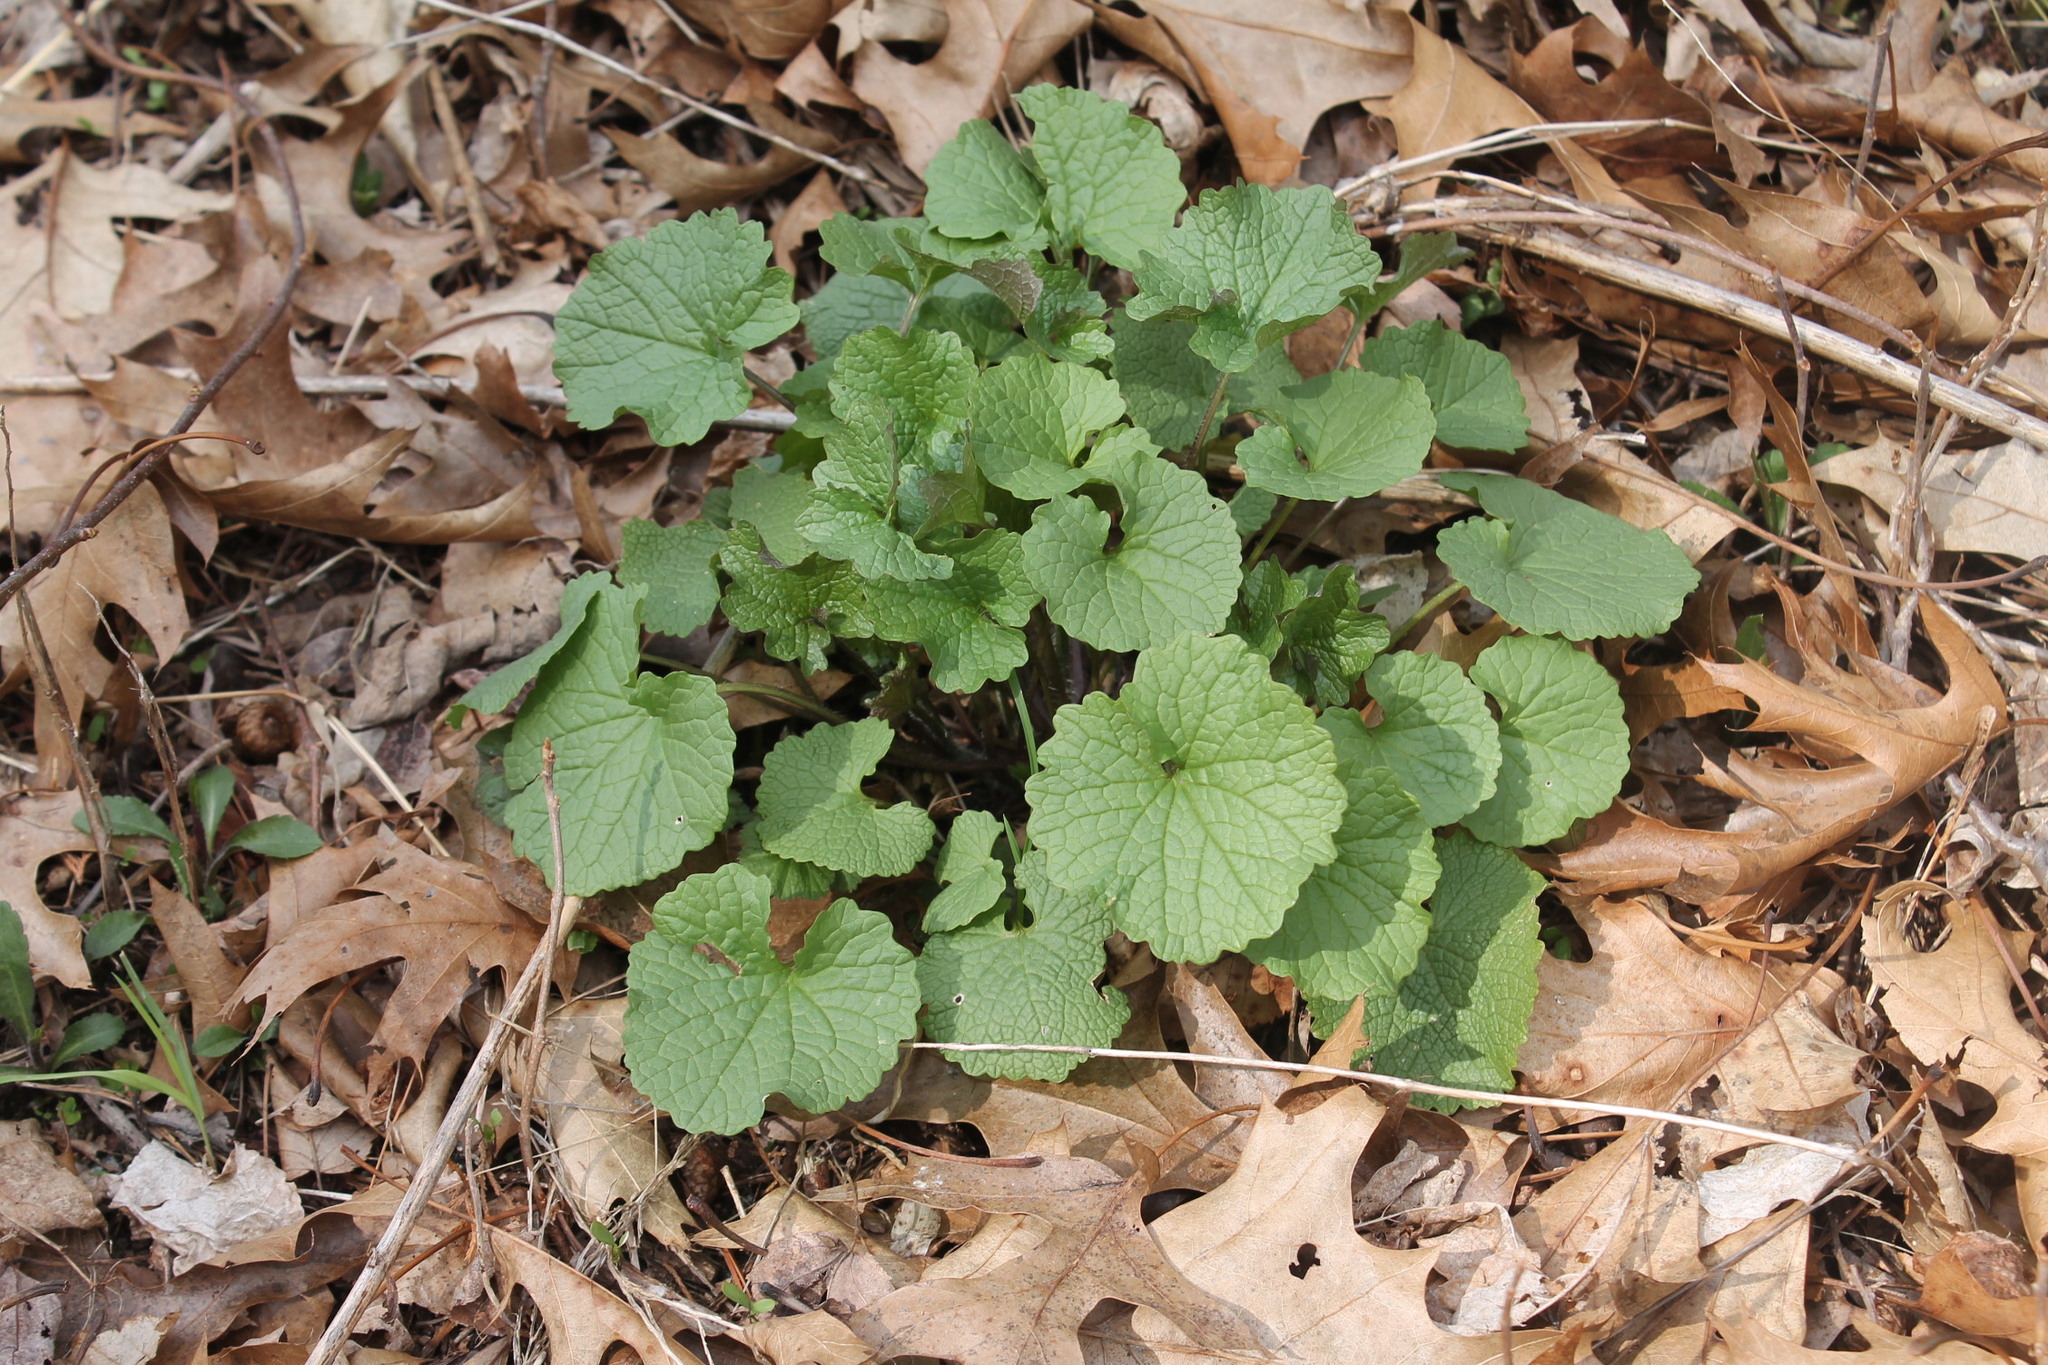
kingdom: Plantae
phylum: Tracheophyta
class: Magnoliopsida
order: Brassicales
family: Brassicaceae
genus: Alliaria
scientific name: Alliaria petiolata
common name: Garlic mustard
